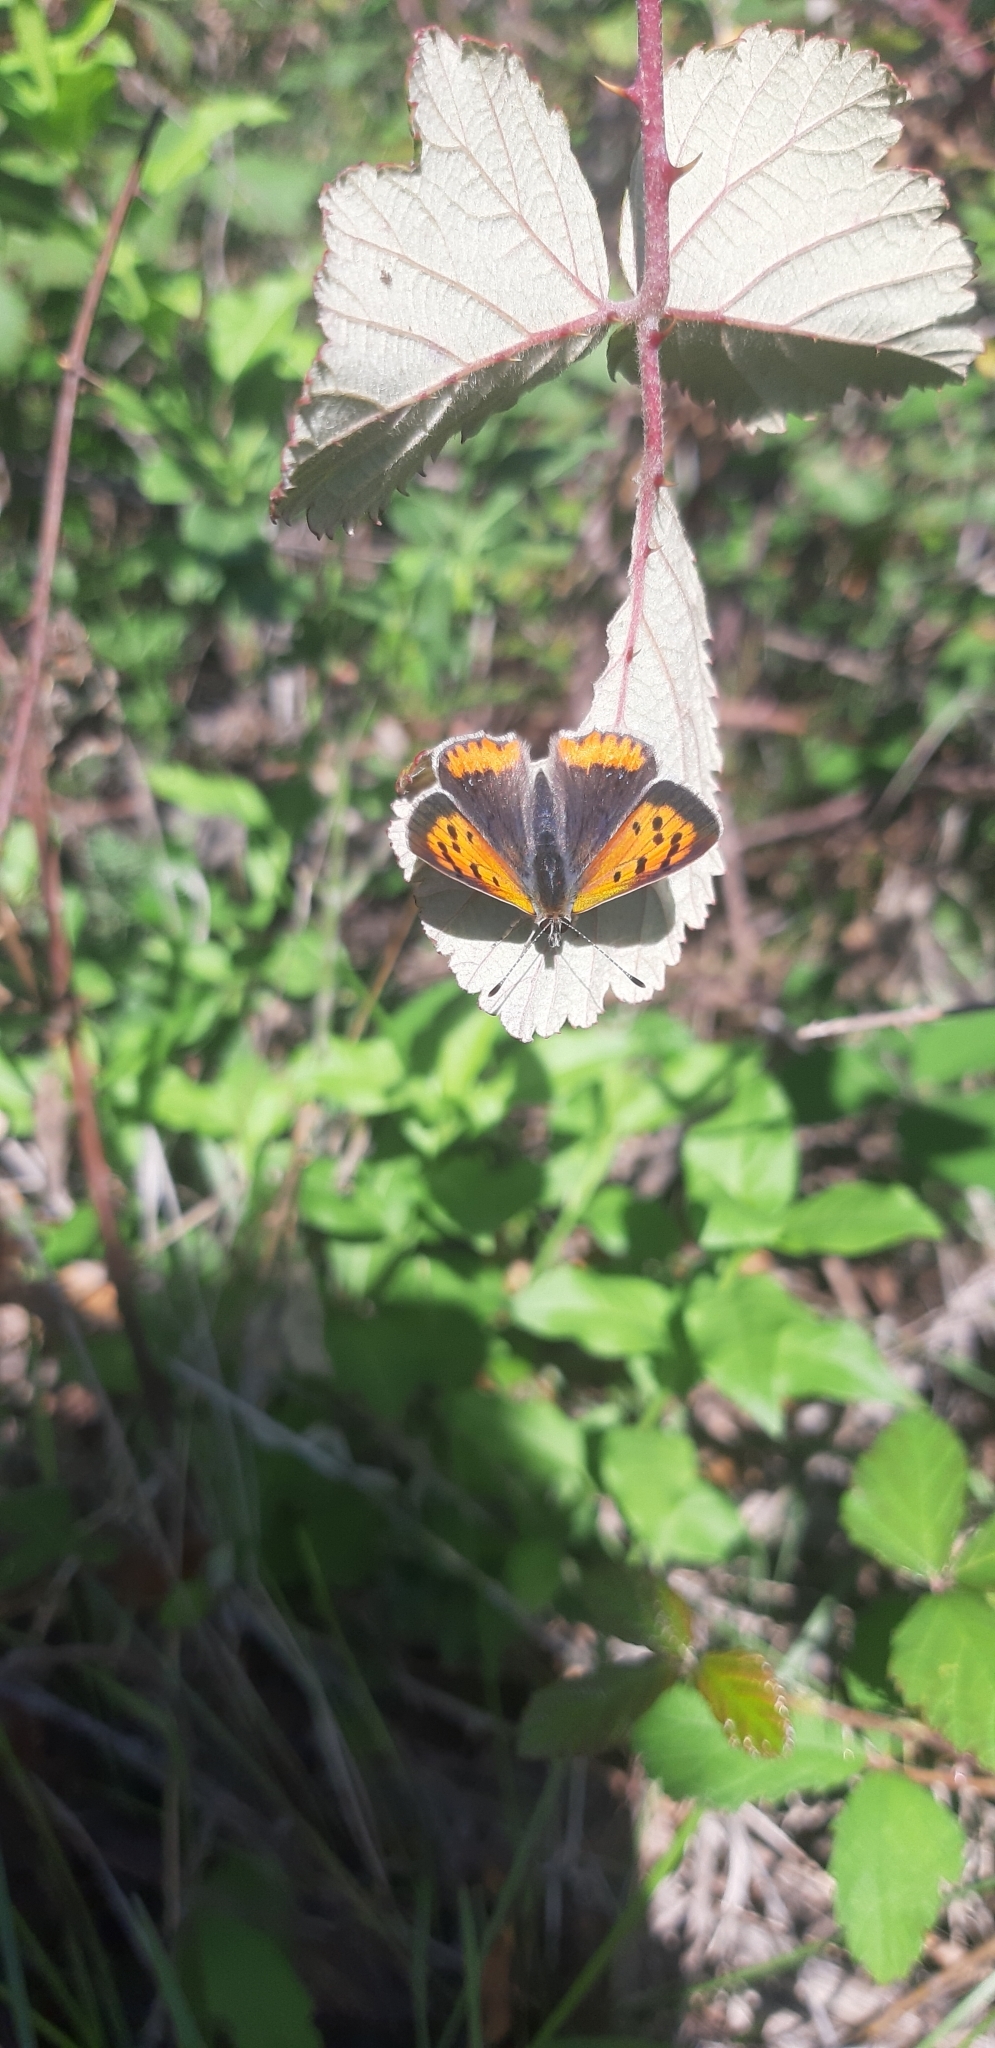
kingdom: Animalia
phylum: Arthropoda
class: Insecta
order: Lepidoptera
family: Lycaenidae
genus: Lycaena
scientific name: Lycaena phlaeas
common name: Small copper
